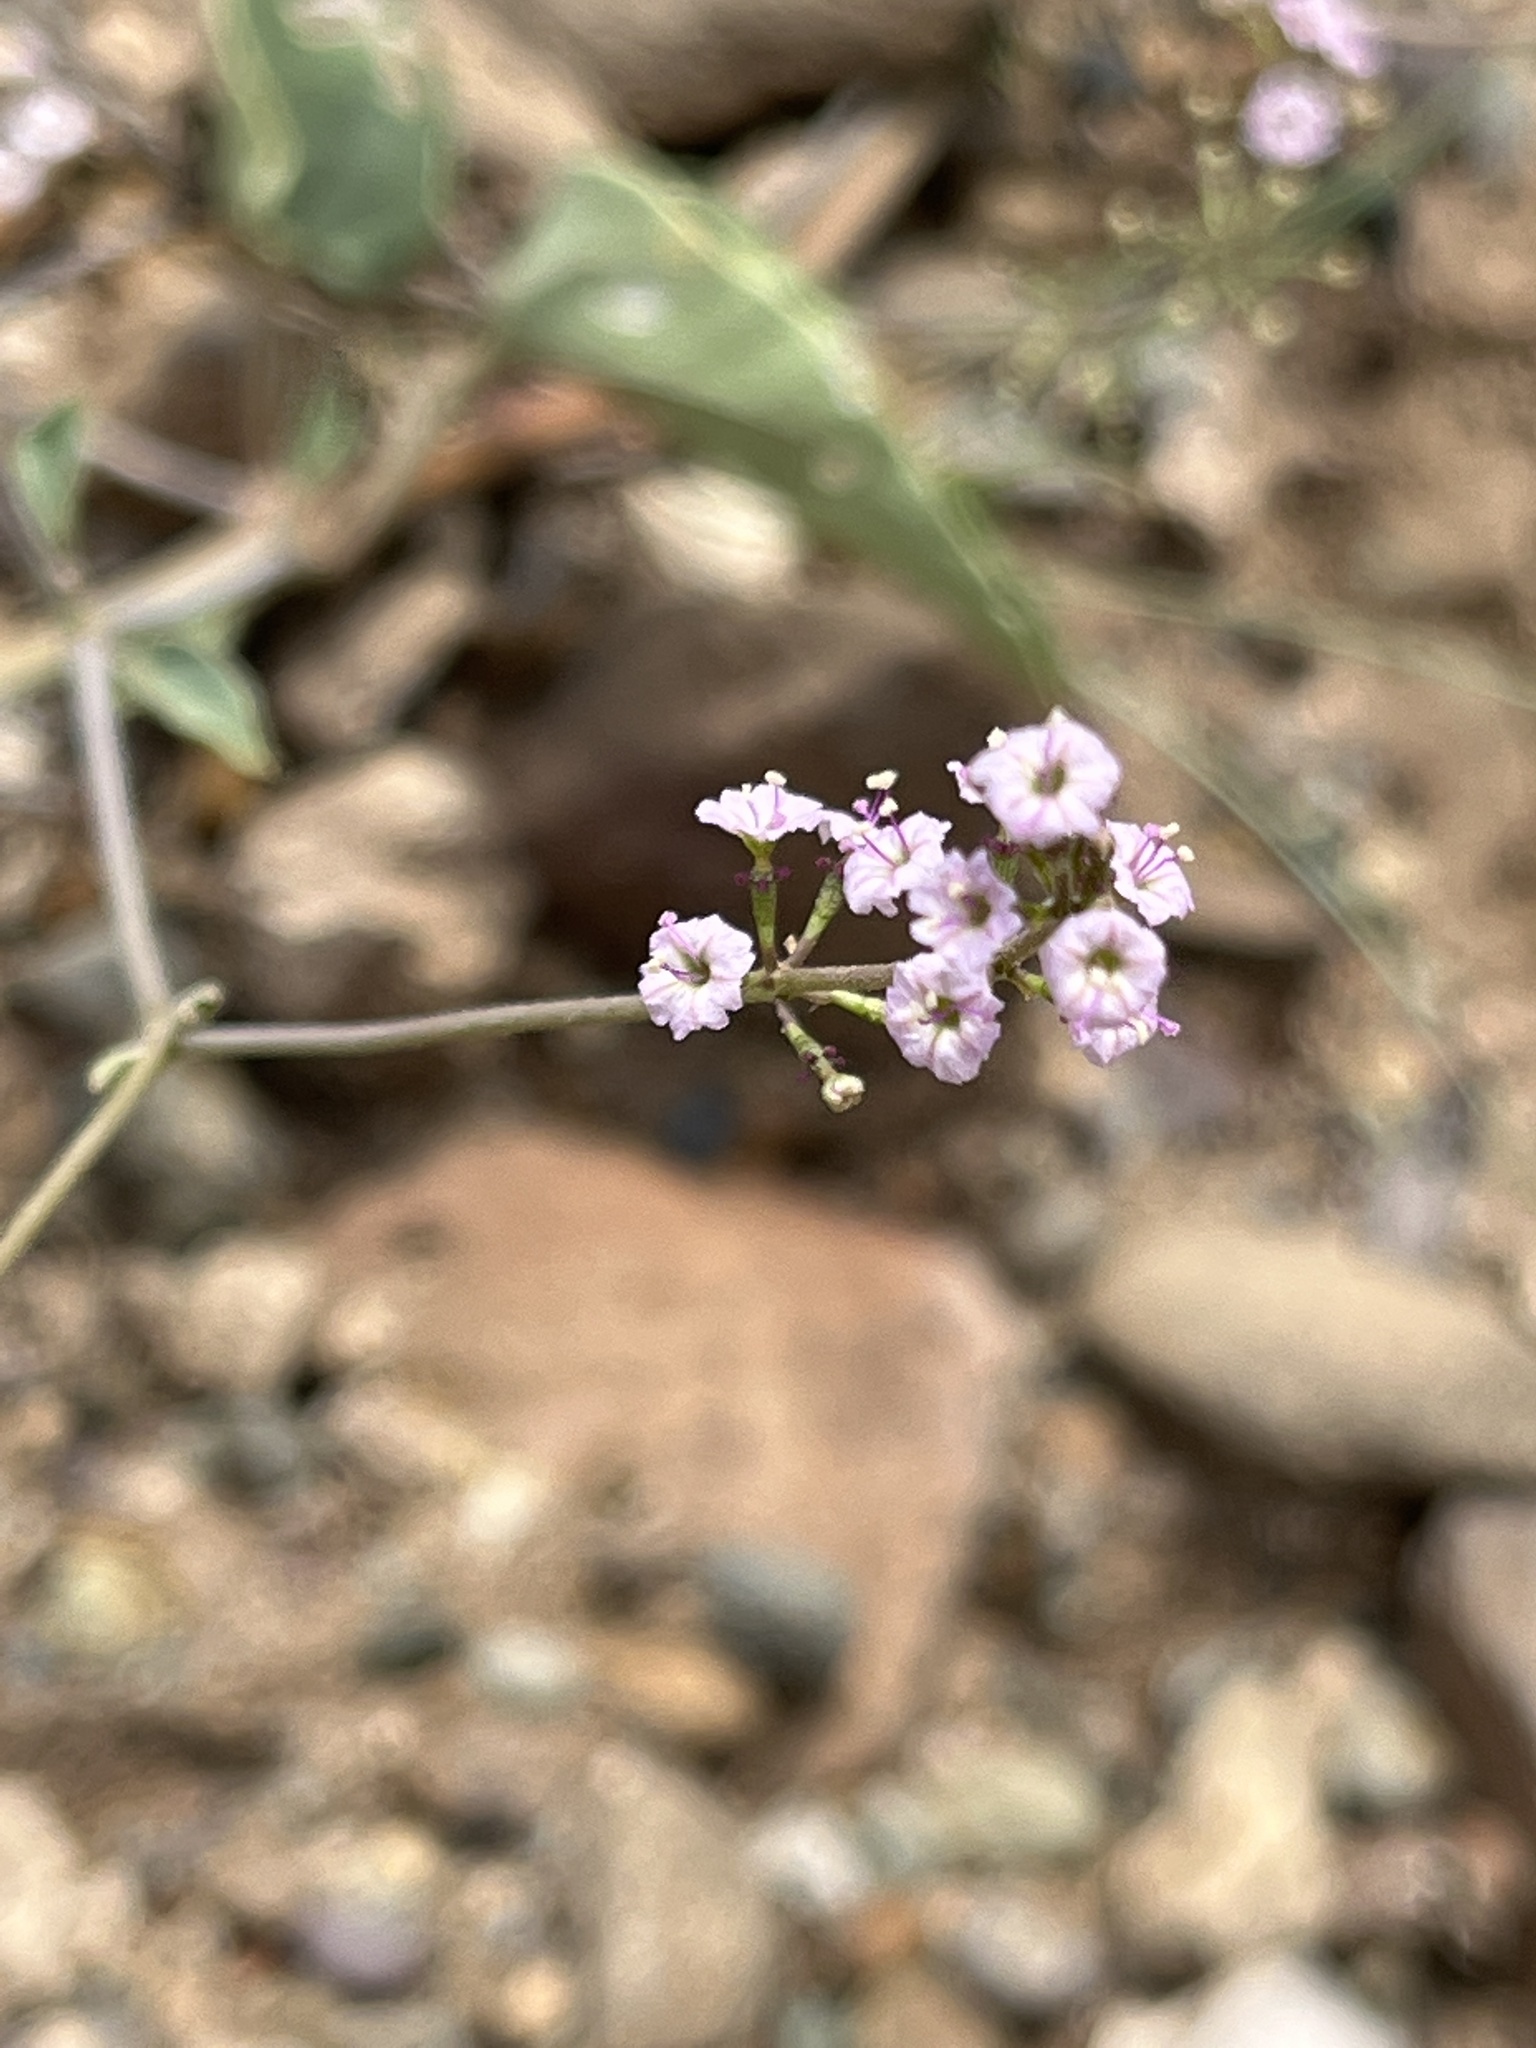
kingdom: Plantae
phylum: Tracheophyta
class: Magnoliopsida
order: Caryophyllales
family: Nyctaginaceae
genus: Commicarpus
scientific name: Commicarpus helenae
